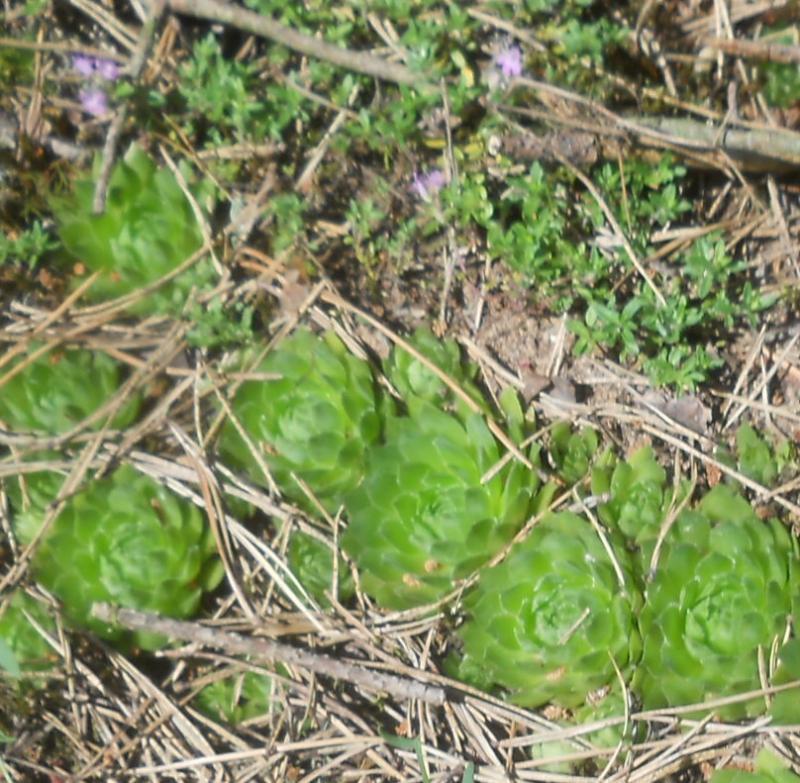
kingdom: Plantae
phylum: Tracheophyta
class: Magnoliopsida
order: Saxifragales
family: Crassulaceae
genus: Sempervivum
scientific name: Sempervivum globiferum
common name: Rolling hen-and-chicks
